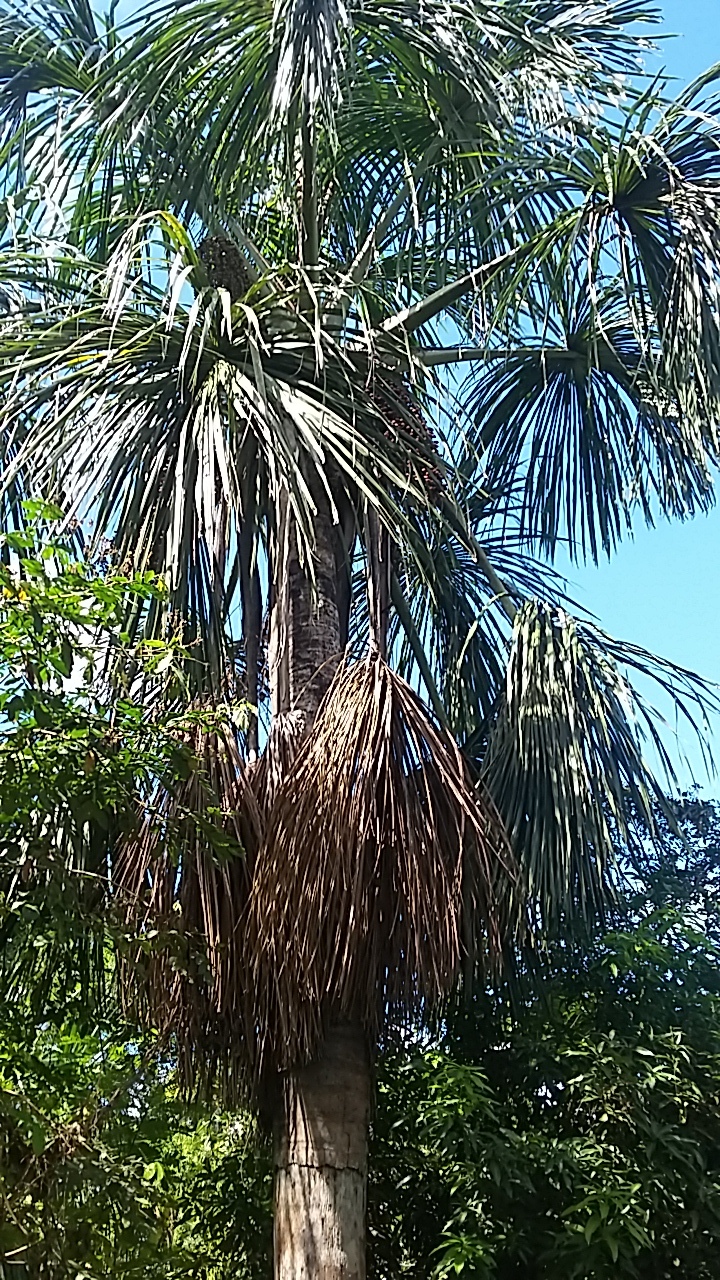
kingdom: Plantae
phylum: Tracheophyta
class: Liliopsida
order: Arecales
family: Arecaceae
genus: Mauritia
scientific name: Mauritia flexuosa
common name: Tree-of-life
